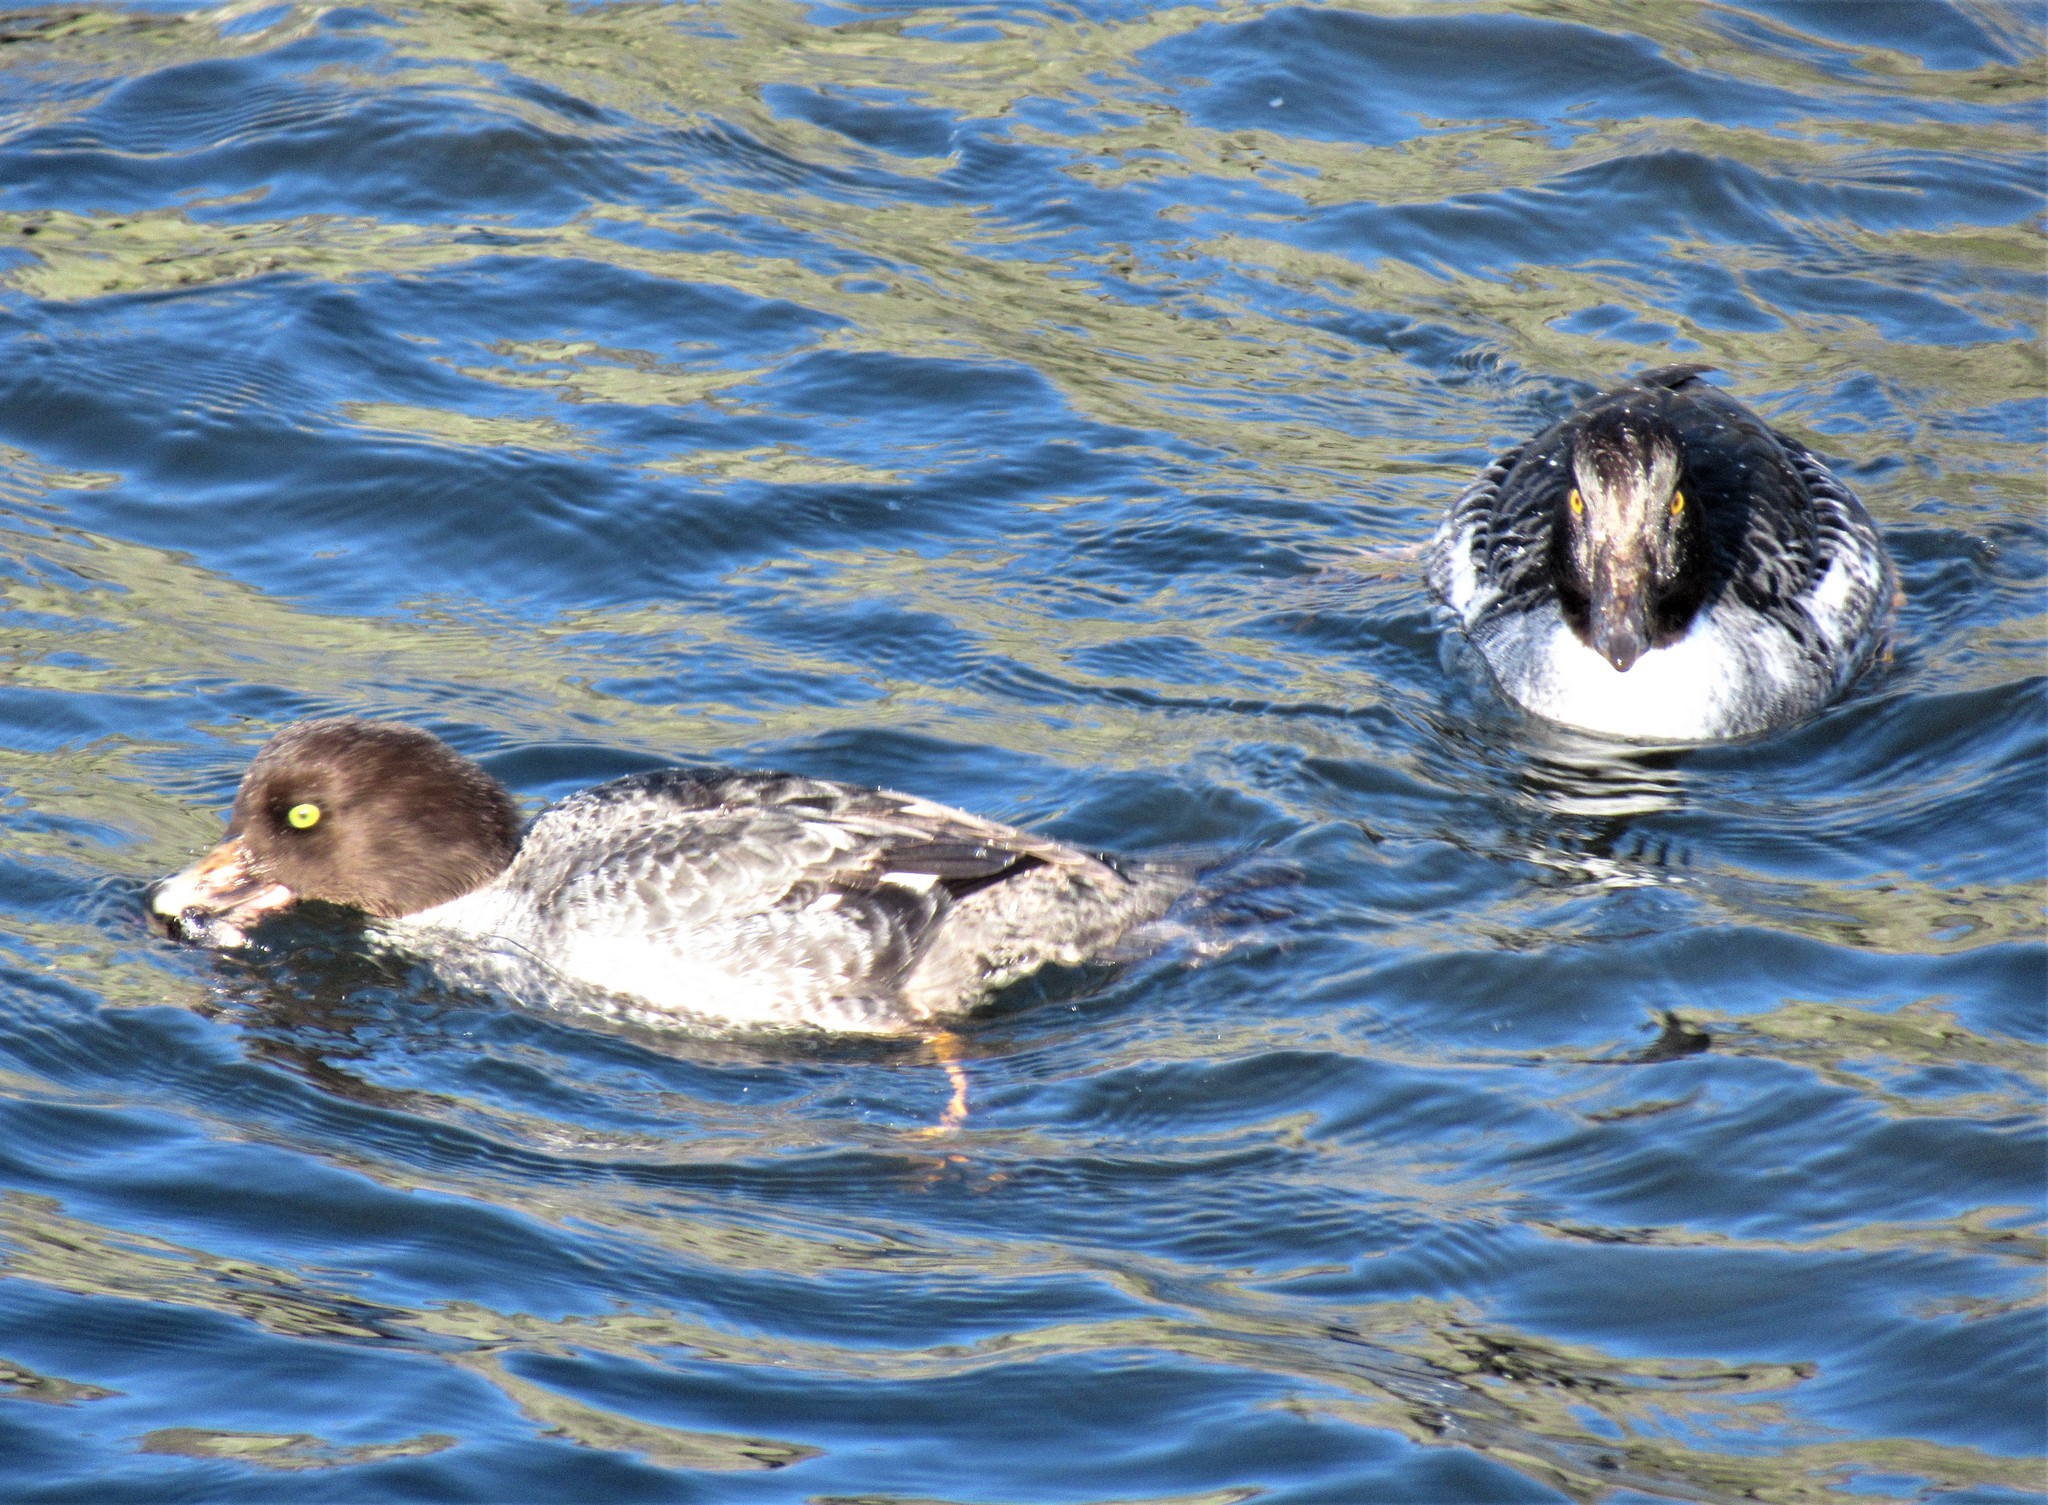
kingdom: Animalia
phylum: Chordata
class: Aves
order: Anseriformes
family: Anatidae
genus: Bucephala
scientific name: Bucephala islandica
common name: Barrow's goldeneye
